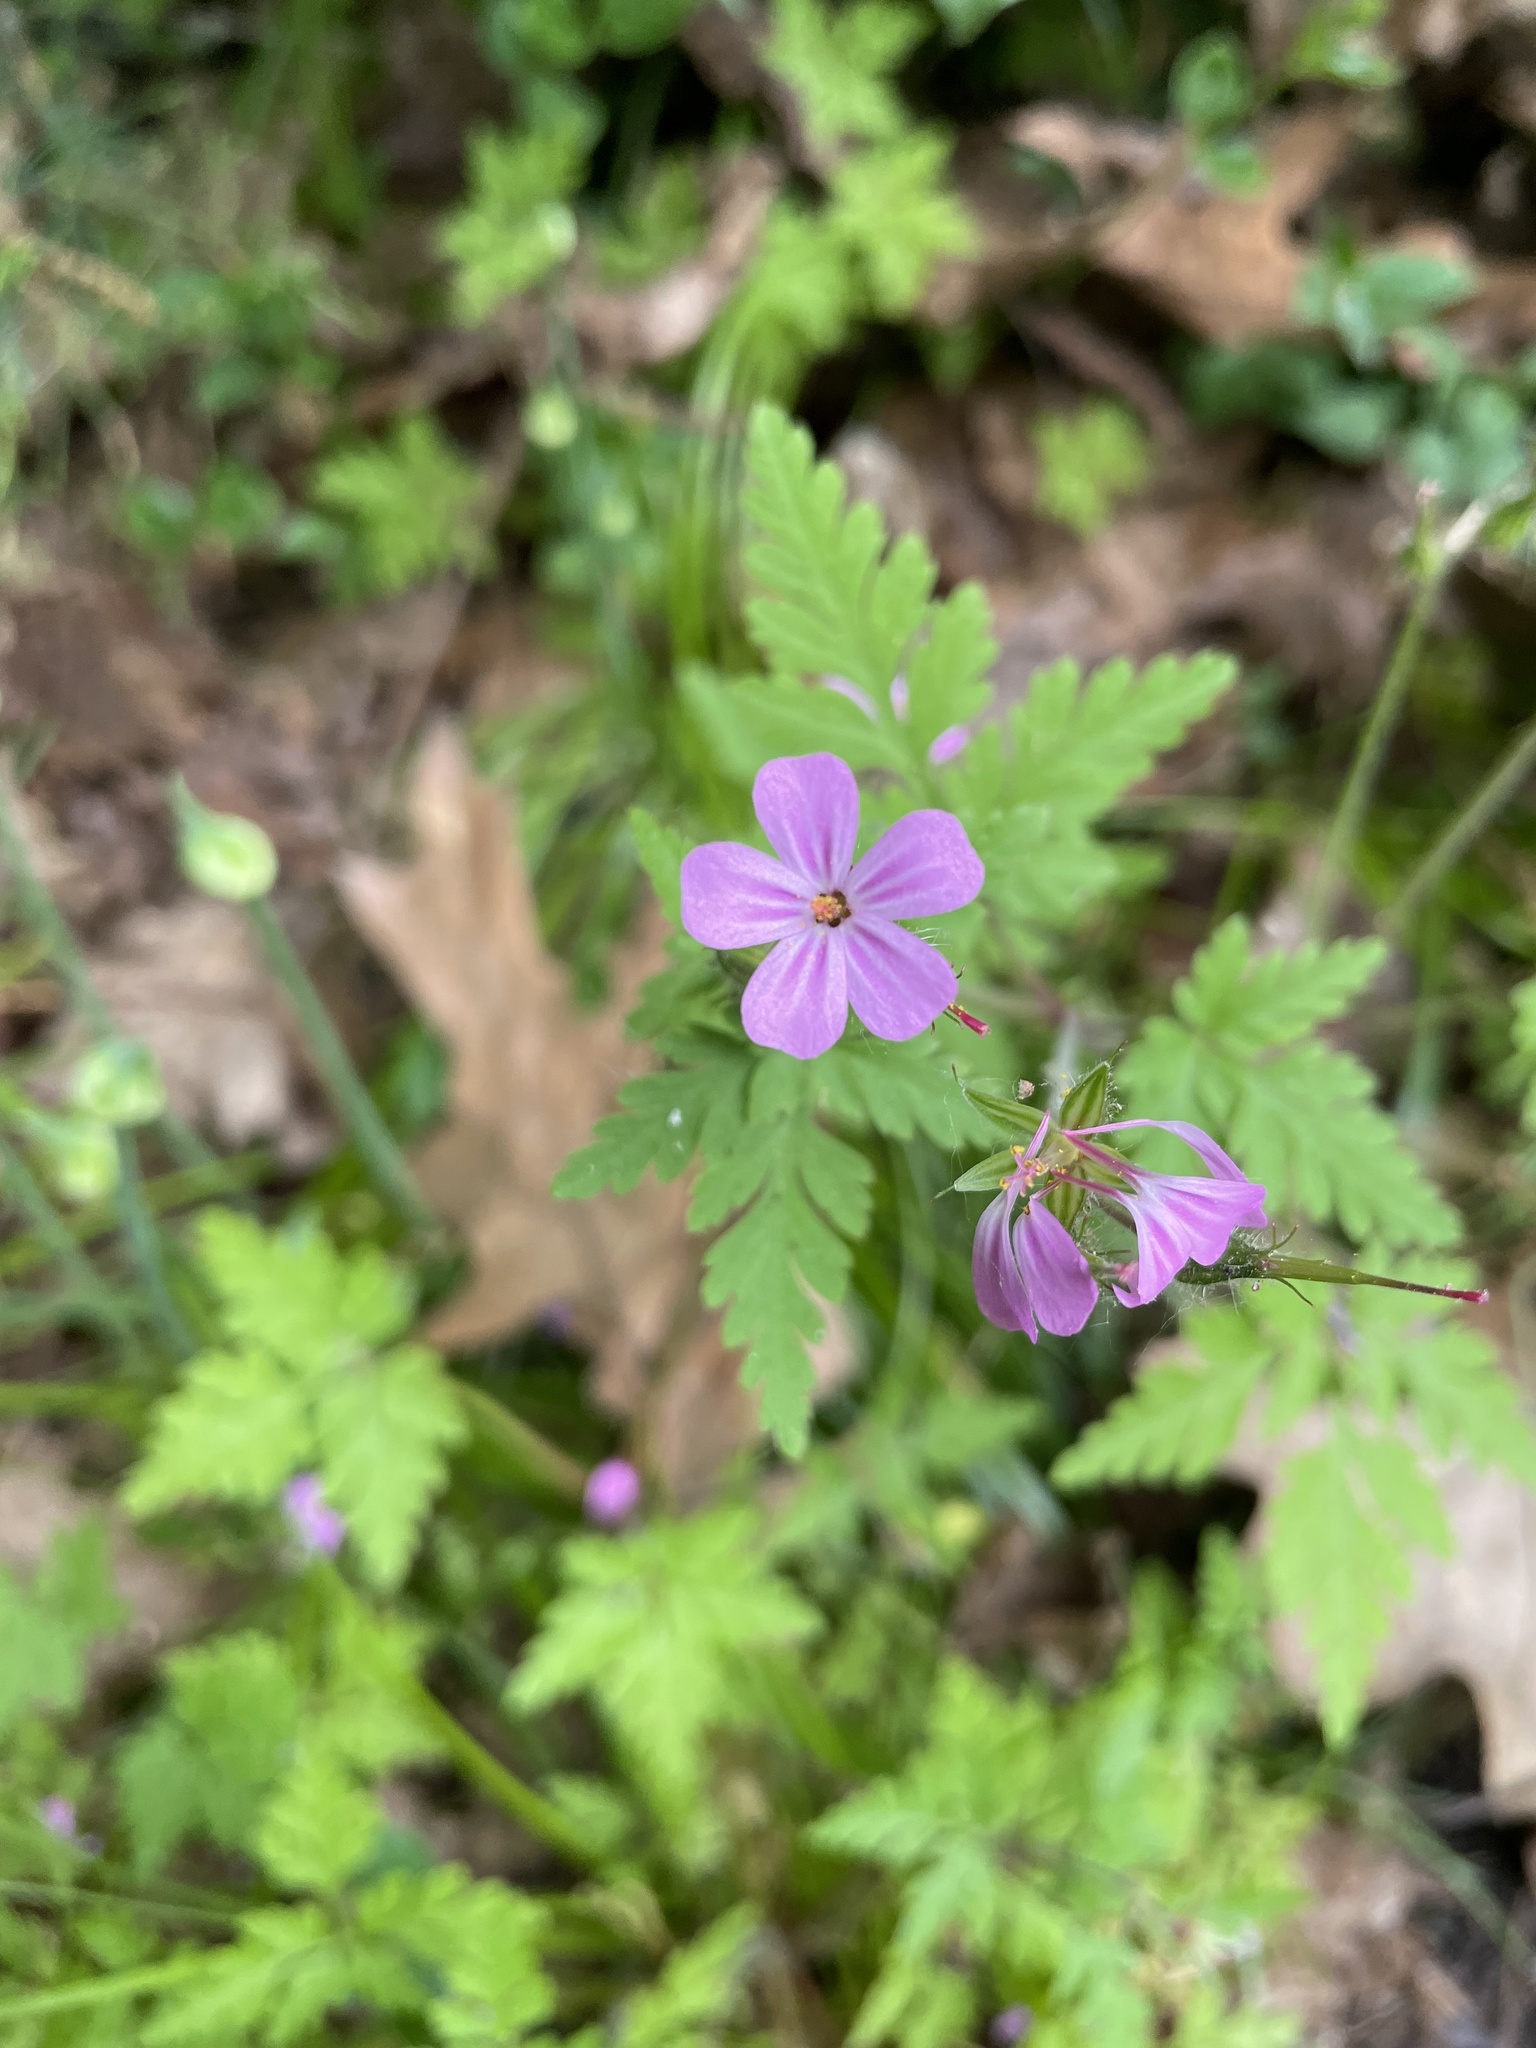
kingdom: Plantae
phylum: Tracheophyta
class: Magnoliopsida
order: Geraniales
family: Geraniaceae
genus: Geranium
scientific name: Geranium robertianum
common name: Herb-robert
